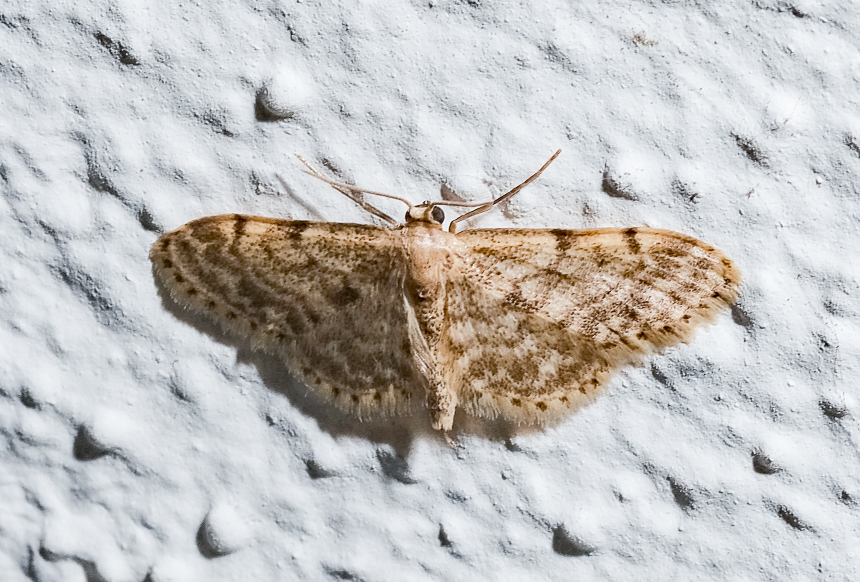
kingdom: Animalia
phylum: Arthropoda
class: Insecta
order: Lepidoptera
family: Geometridae
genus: Idaea
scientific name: Idaea inquinata
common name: Rusty wave
